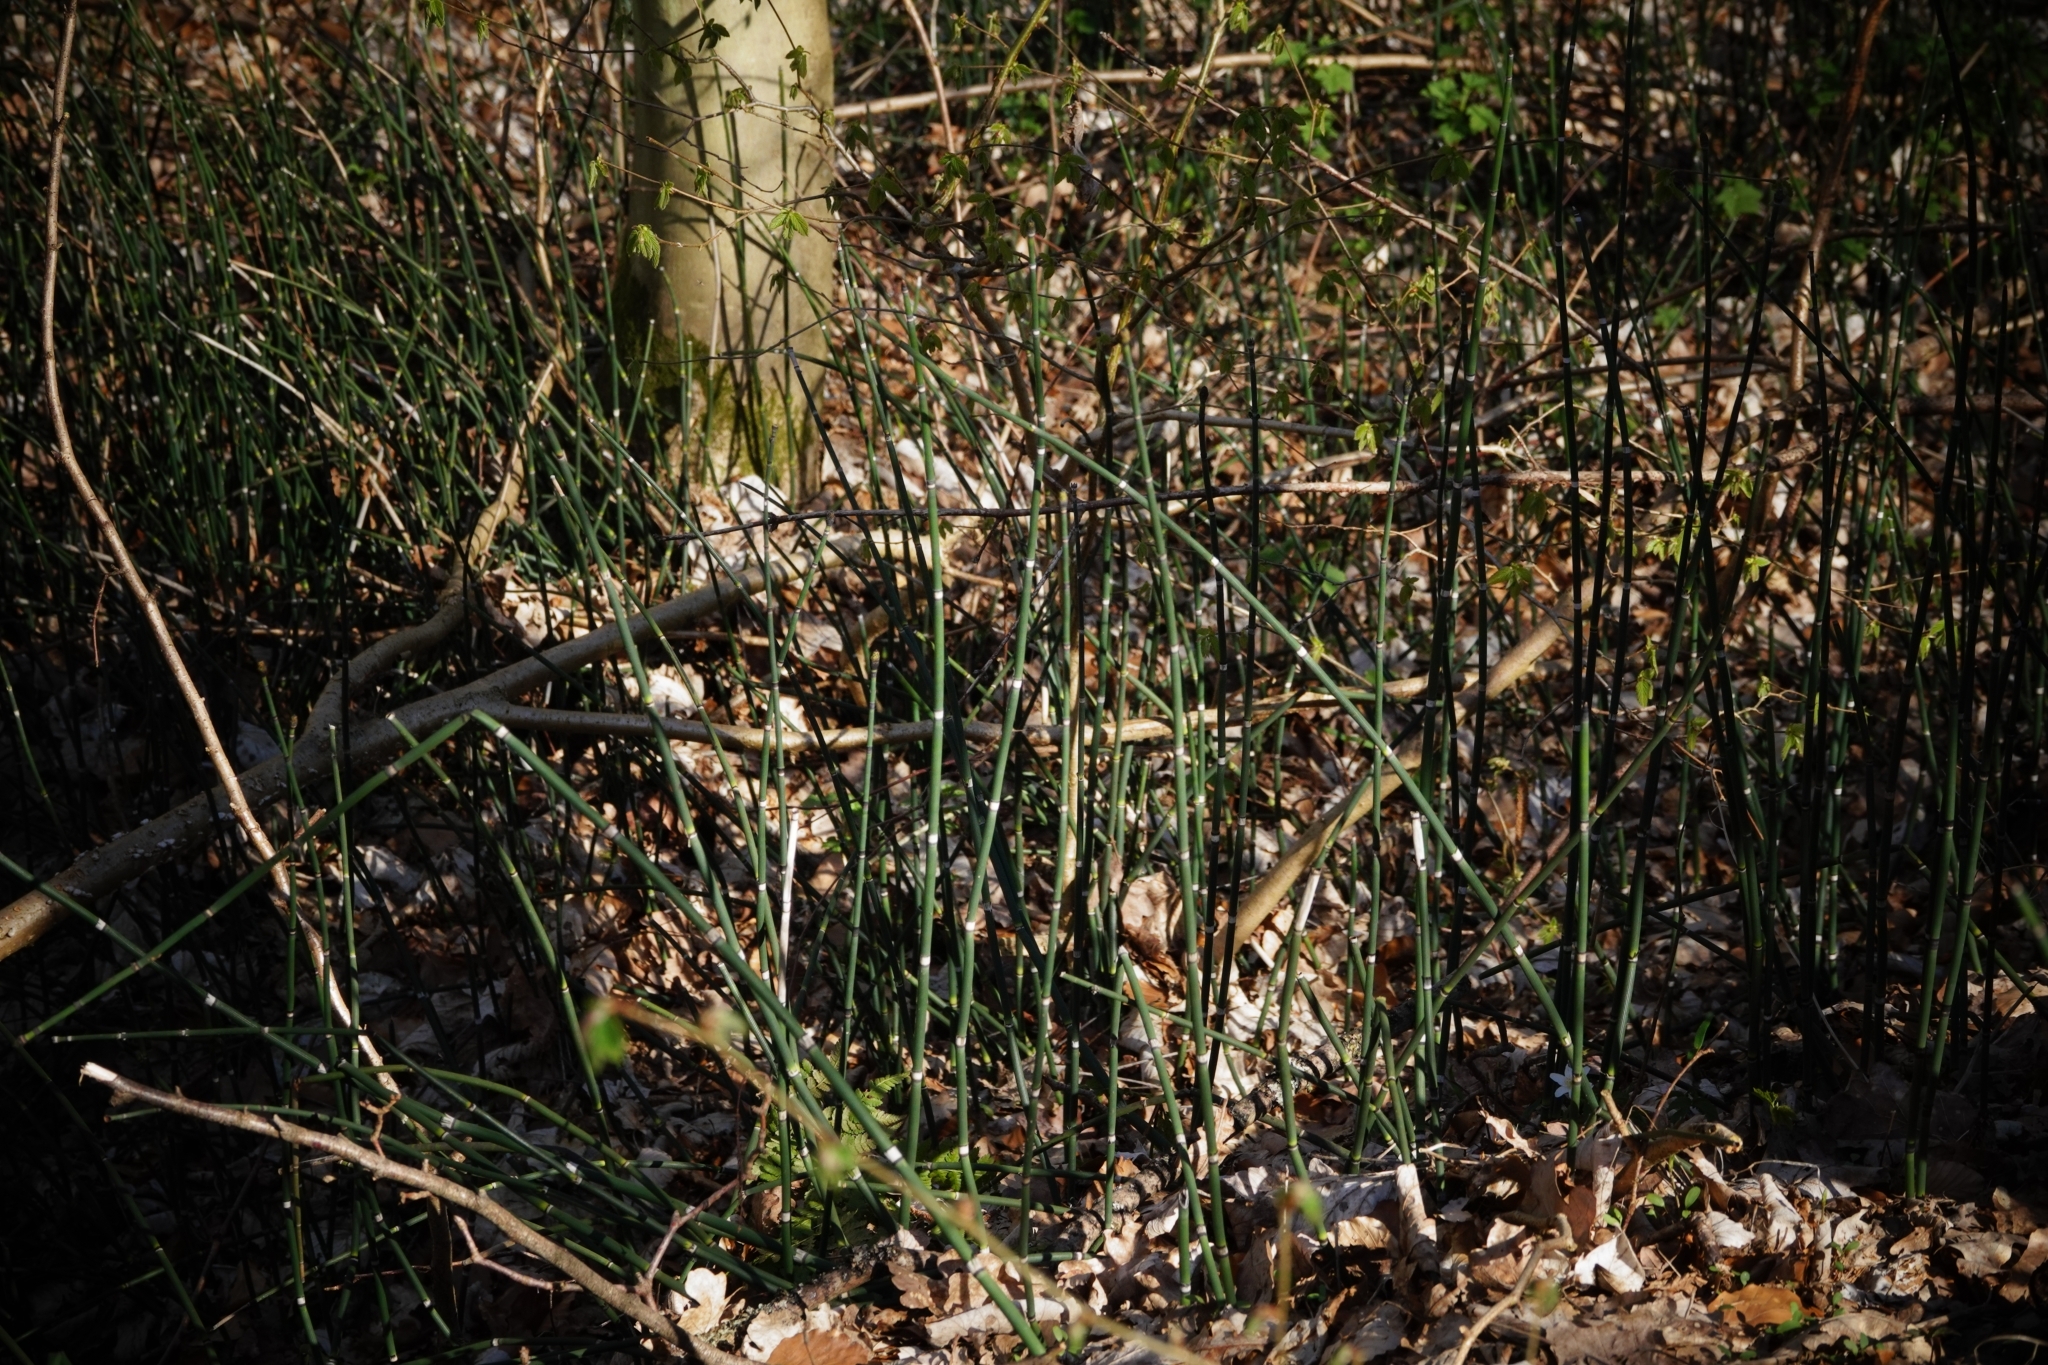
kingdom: Plantae
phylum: Tracheophyta
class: Polypodiopsida
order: Equisetales
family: Equisetaceae
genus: Equisetum
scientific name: Equisetum hyemale
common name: Rough horsetail
